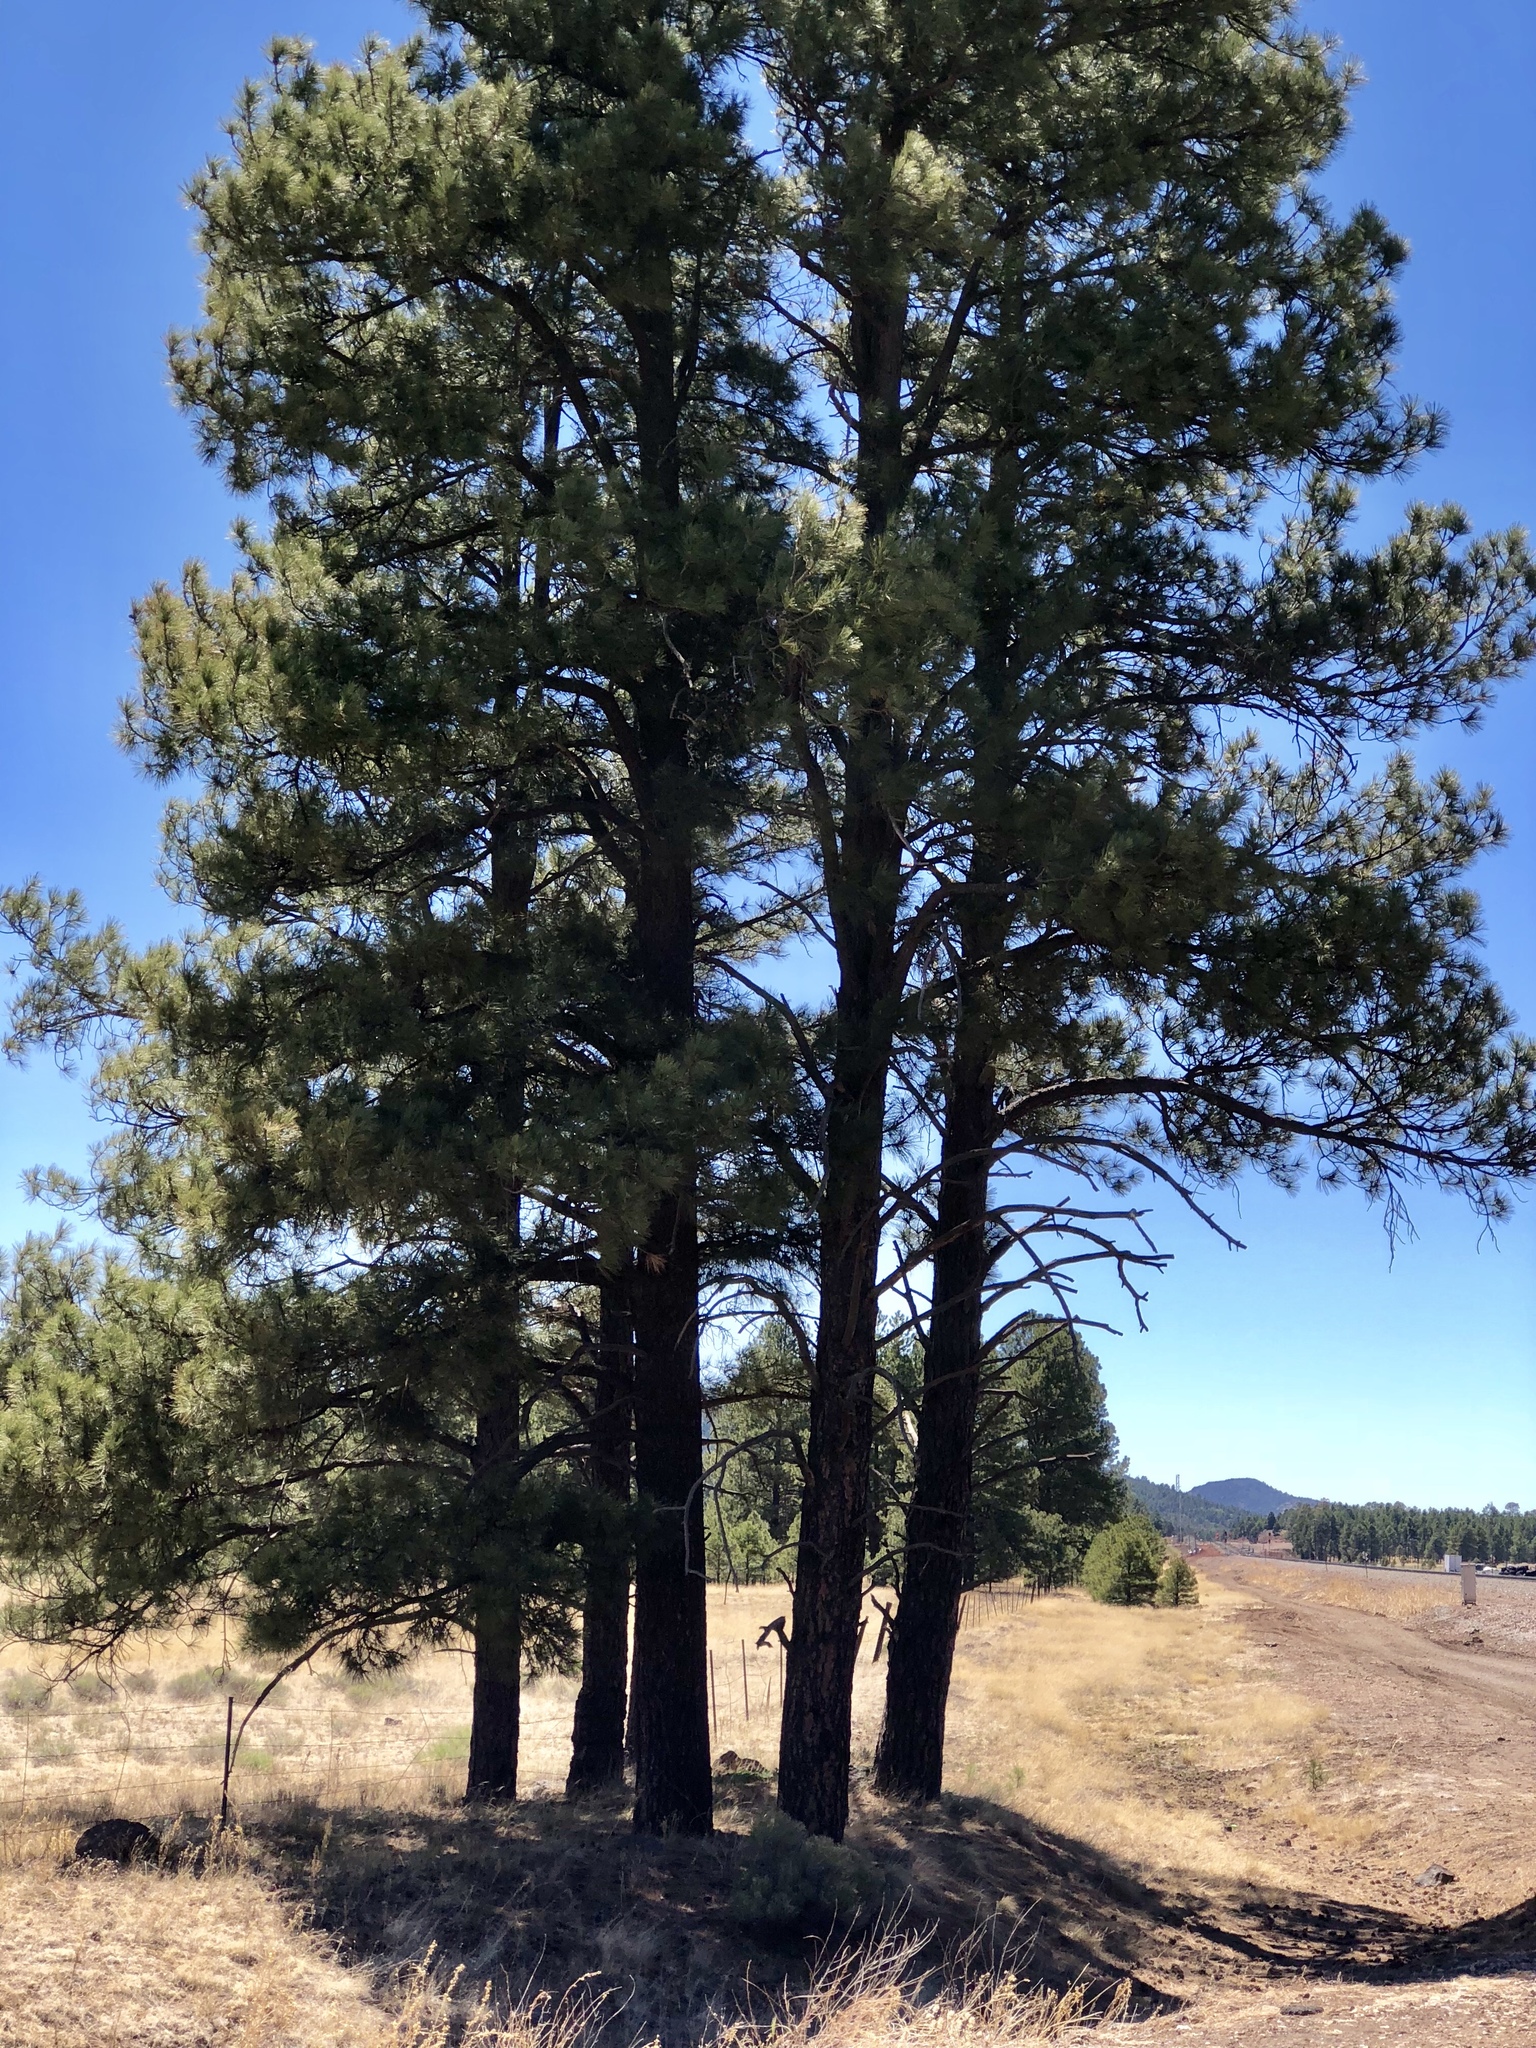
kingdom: Plantae
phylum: Tracheophyta
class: Pinopsida
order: Pinales
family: Pinaceae
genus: Pinus
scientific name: Pinus ponderosa
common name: Western yellow-pine
